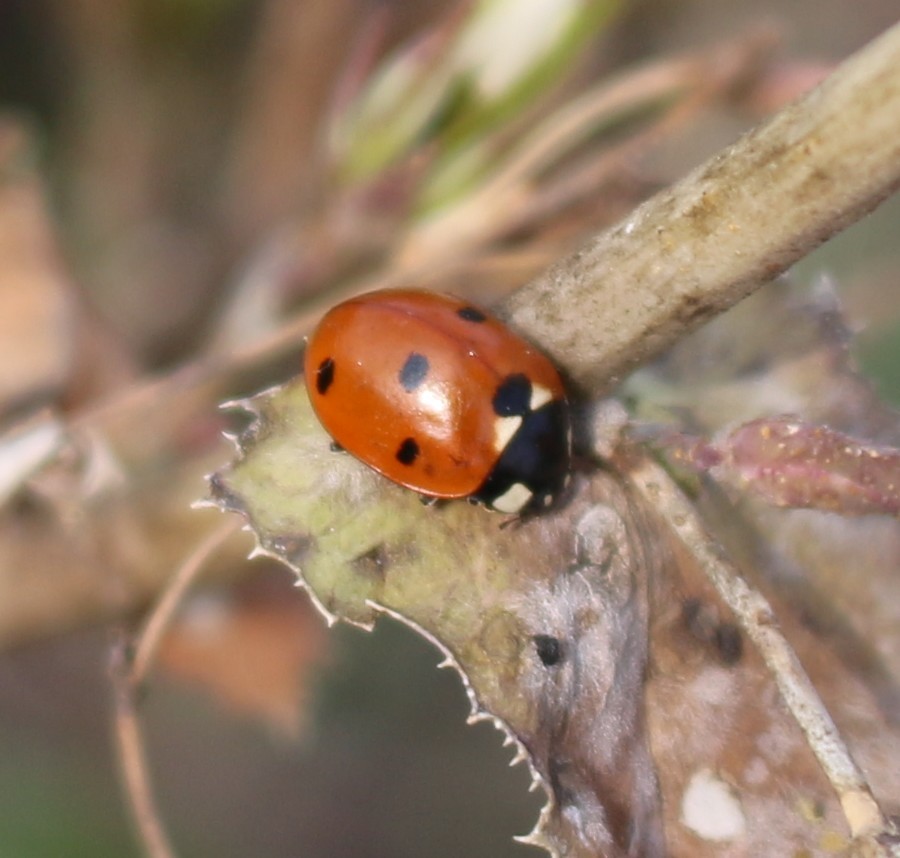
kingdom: Animalia
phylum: Arthropoda
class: Insecta
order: Coleoptera
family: Coccinellidae
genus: Coccinella
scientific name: Coccinella septempunctata
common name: Sevenspotted lady beetle
